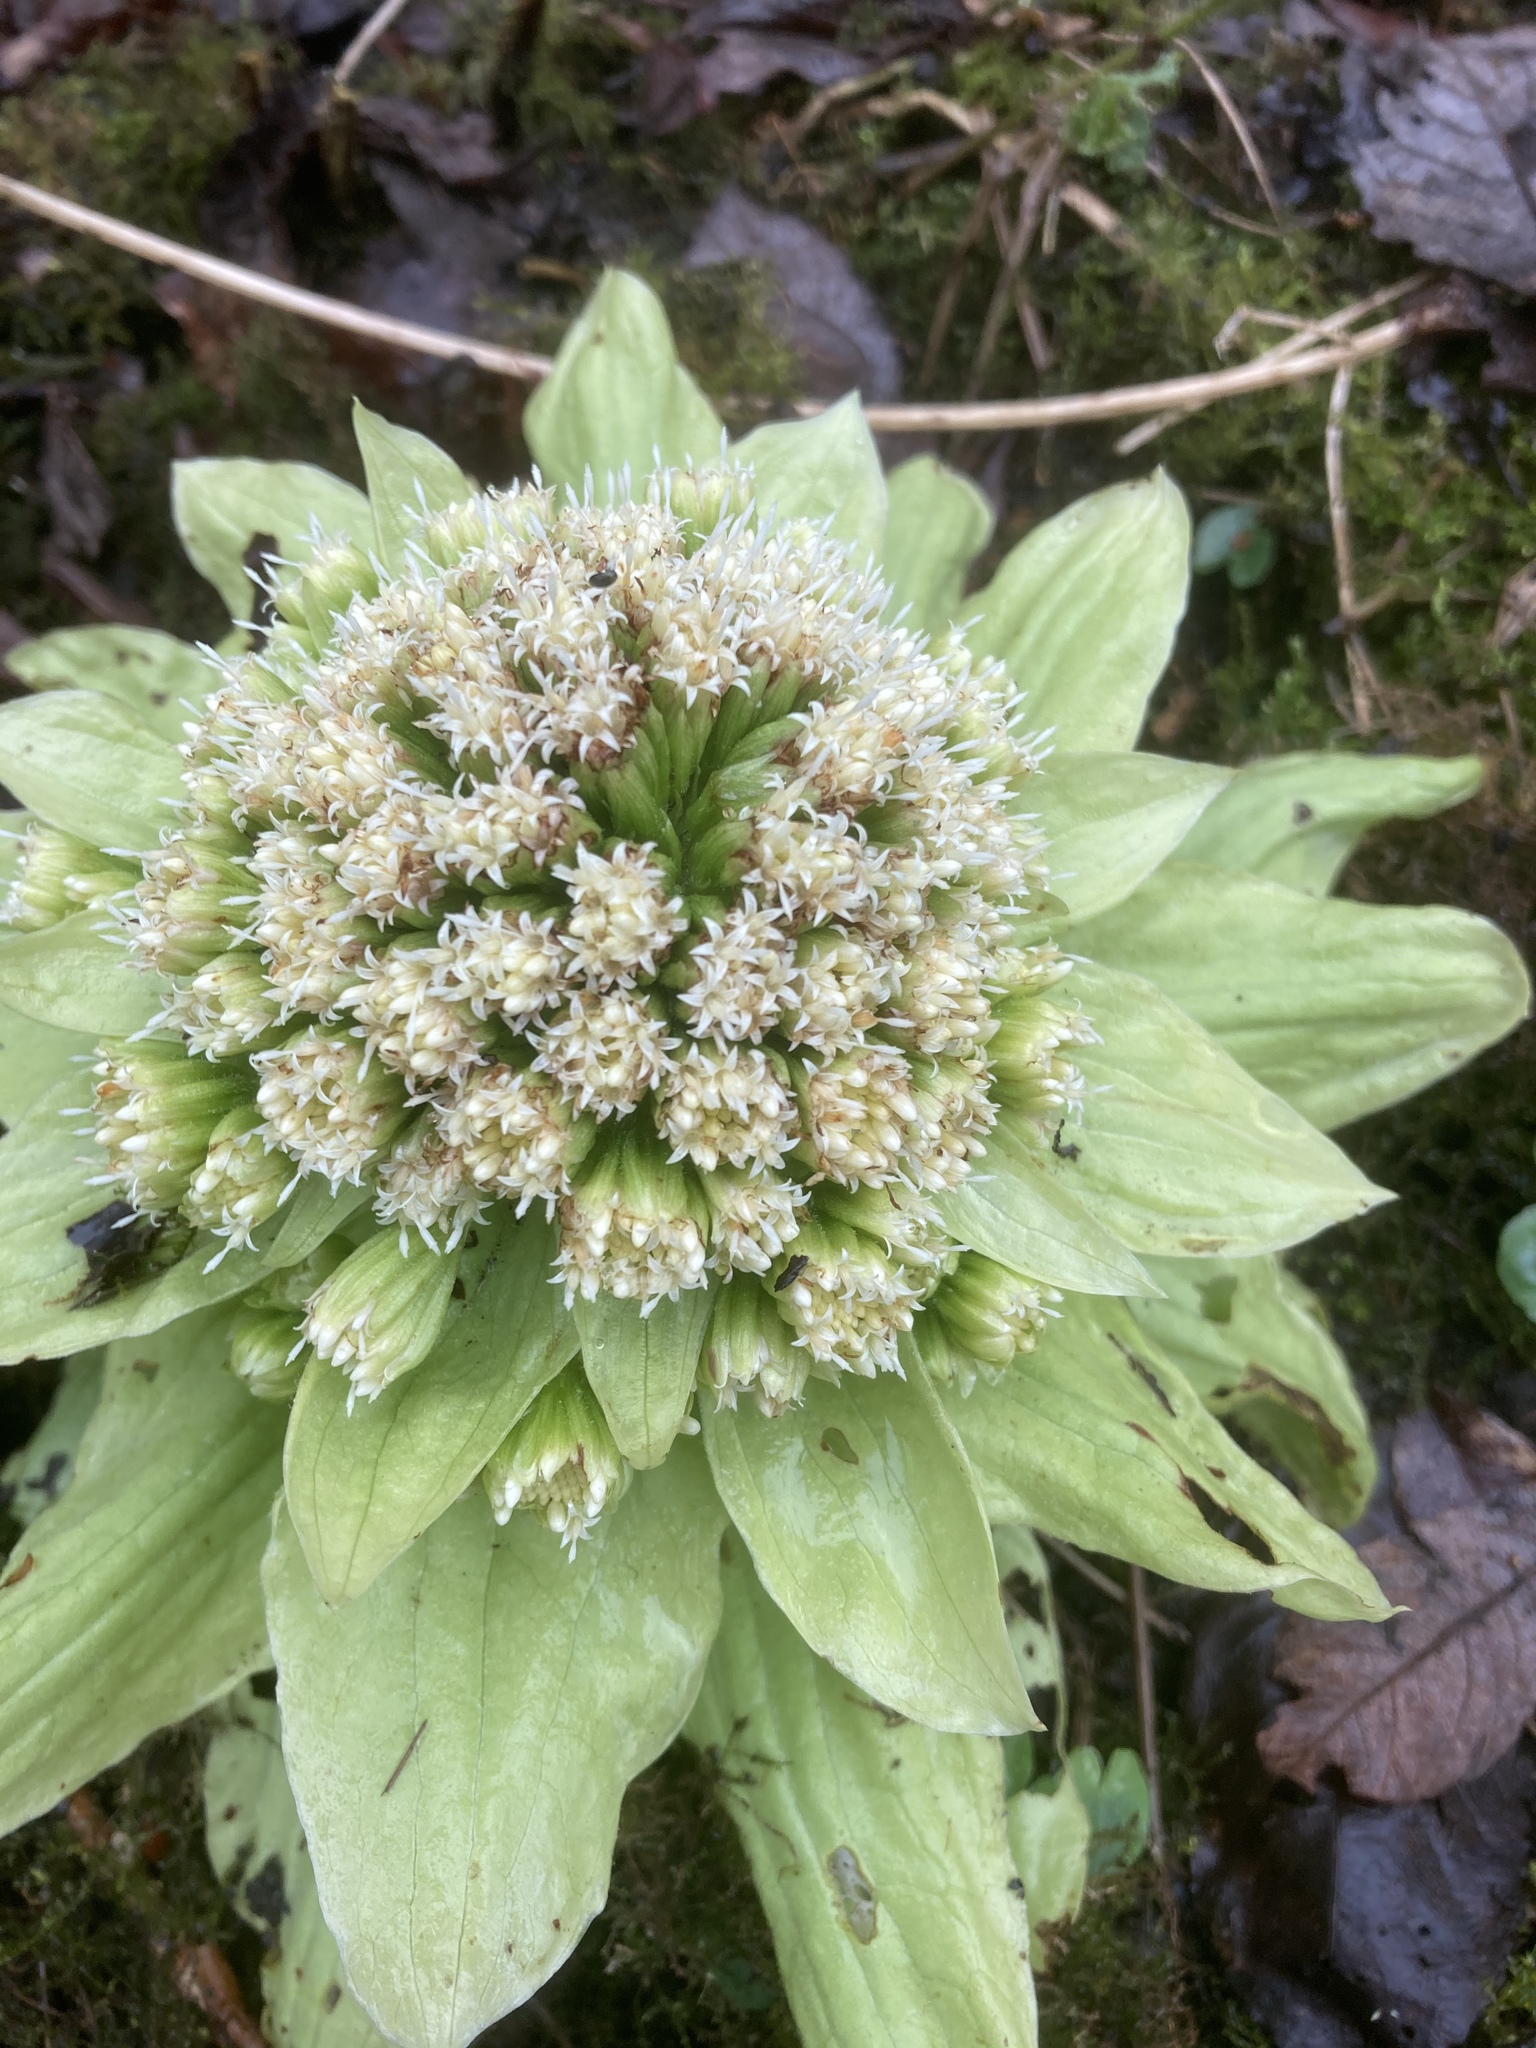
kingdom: Plantae
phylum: Tracheophyta
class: Magnoliopsida
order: Asterales
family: Asteraceae
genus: Petasites
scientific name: Petasites japonicus
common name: Giant butterbur
